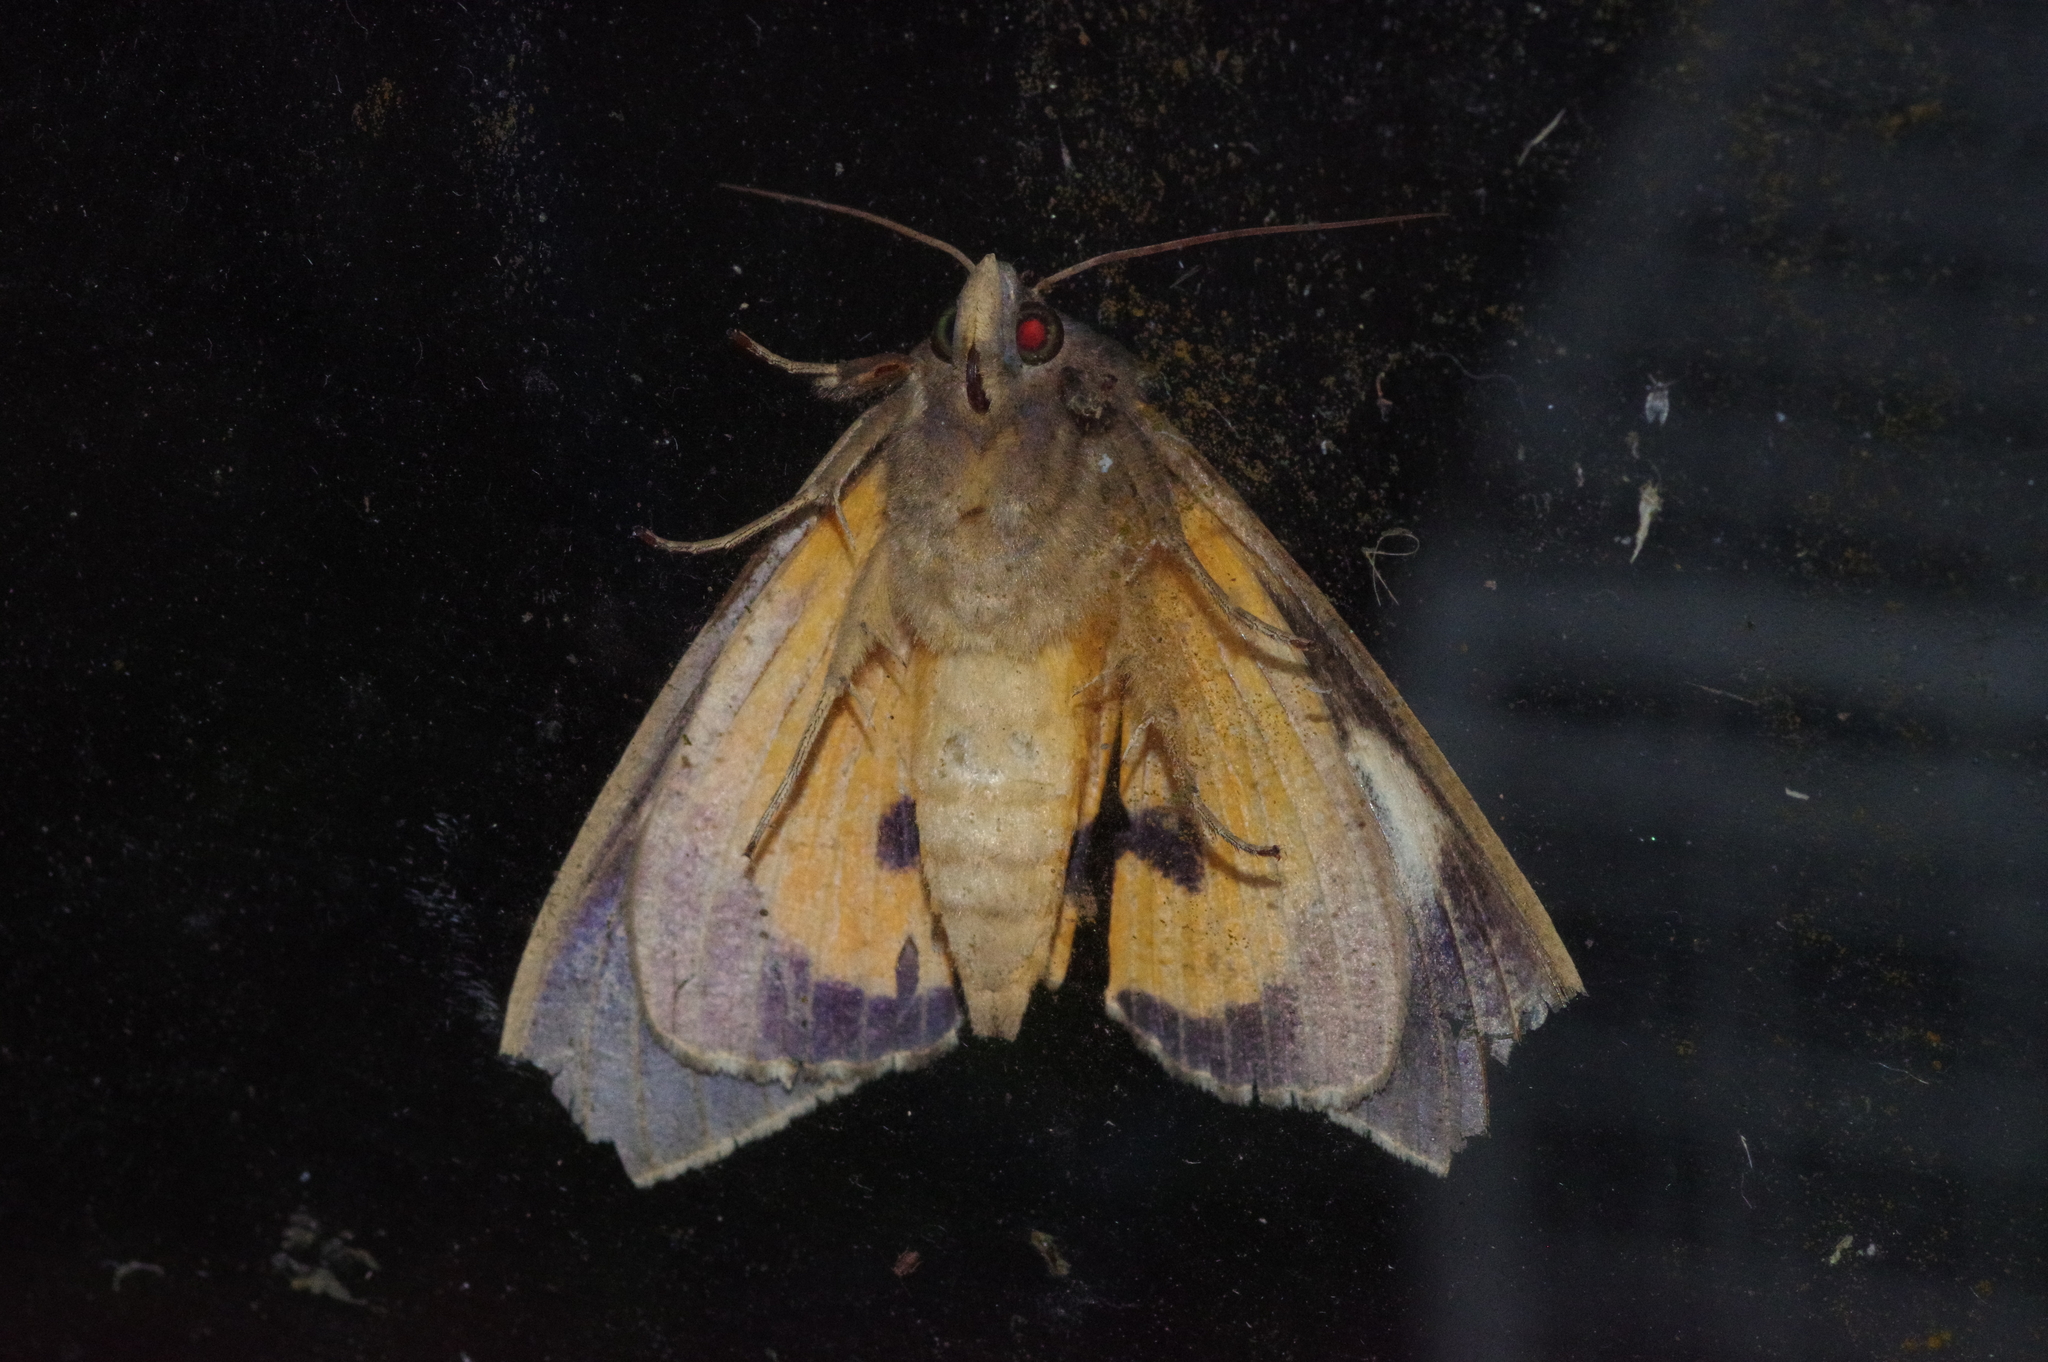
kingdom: Animalia
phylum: Arthropoda
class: Insecta
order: Lepidoptera
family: Erebidae
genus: Eudocima
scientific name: Eudocima salaminia
